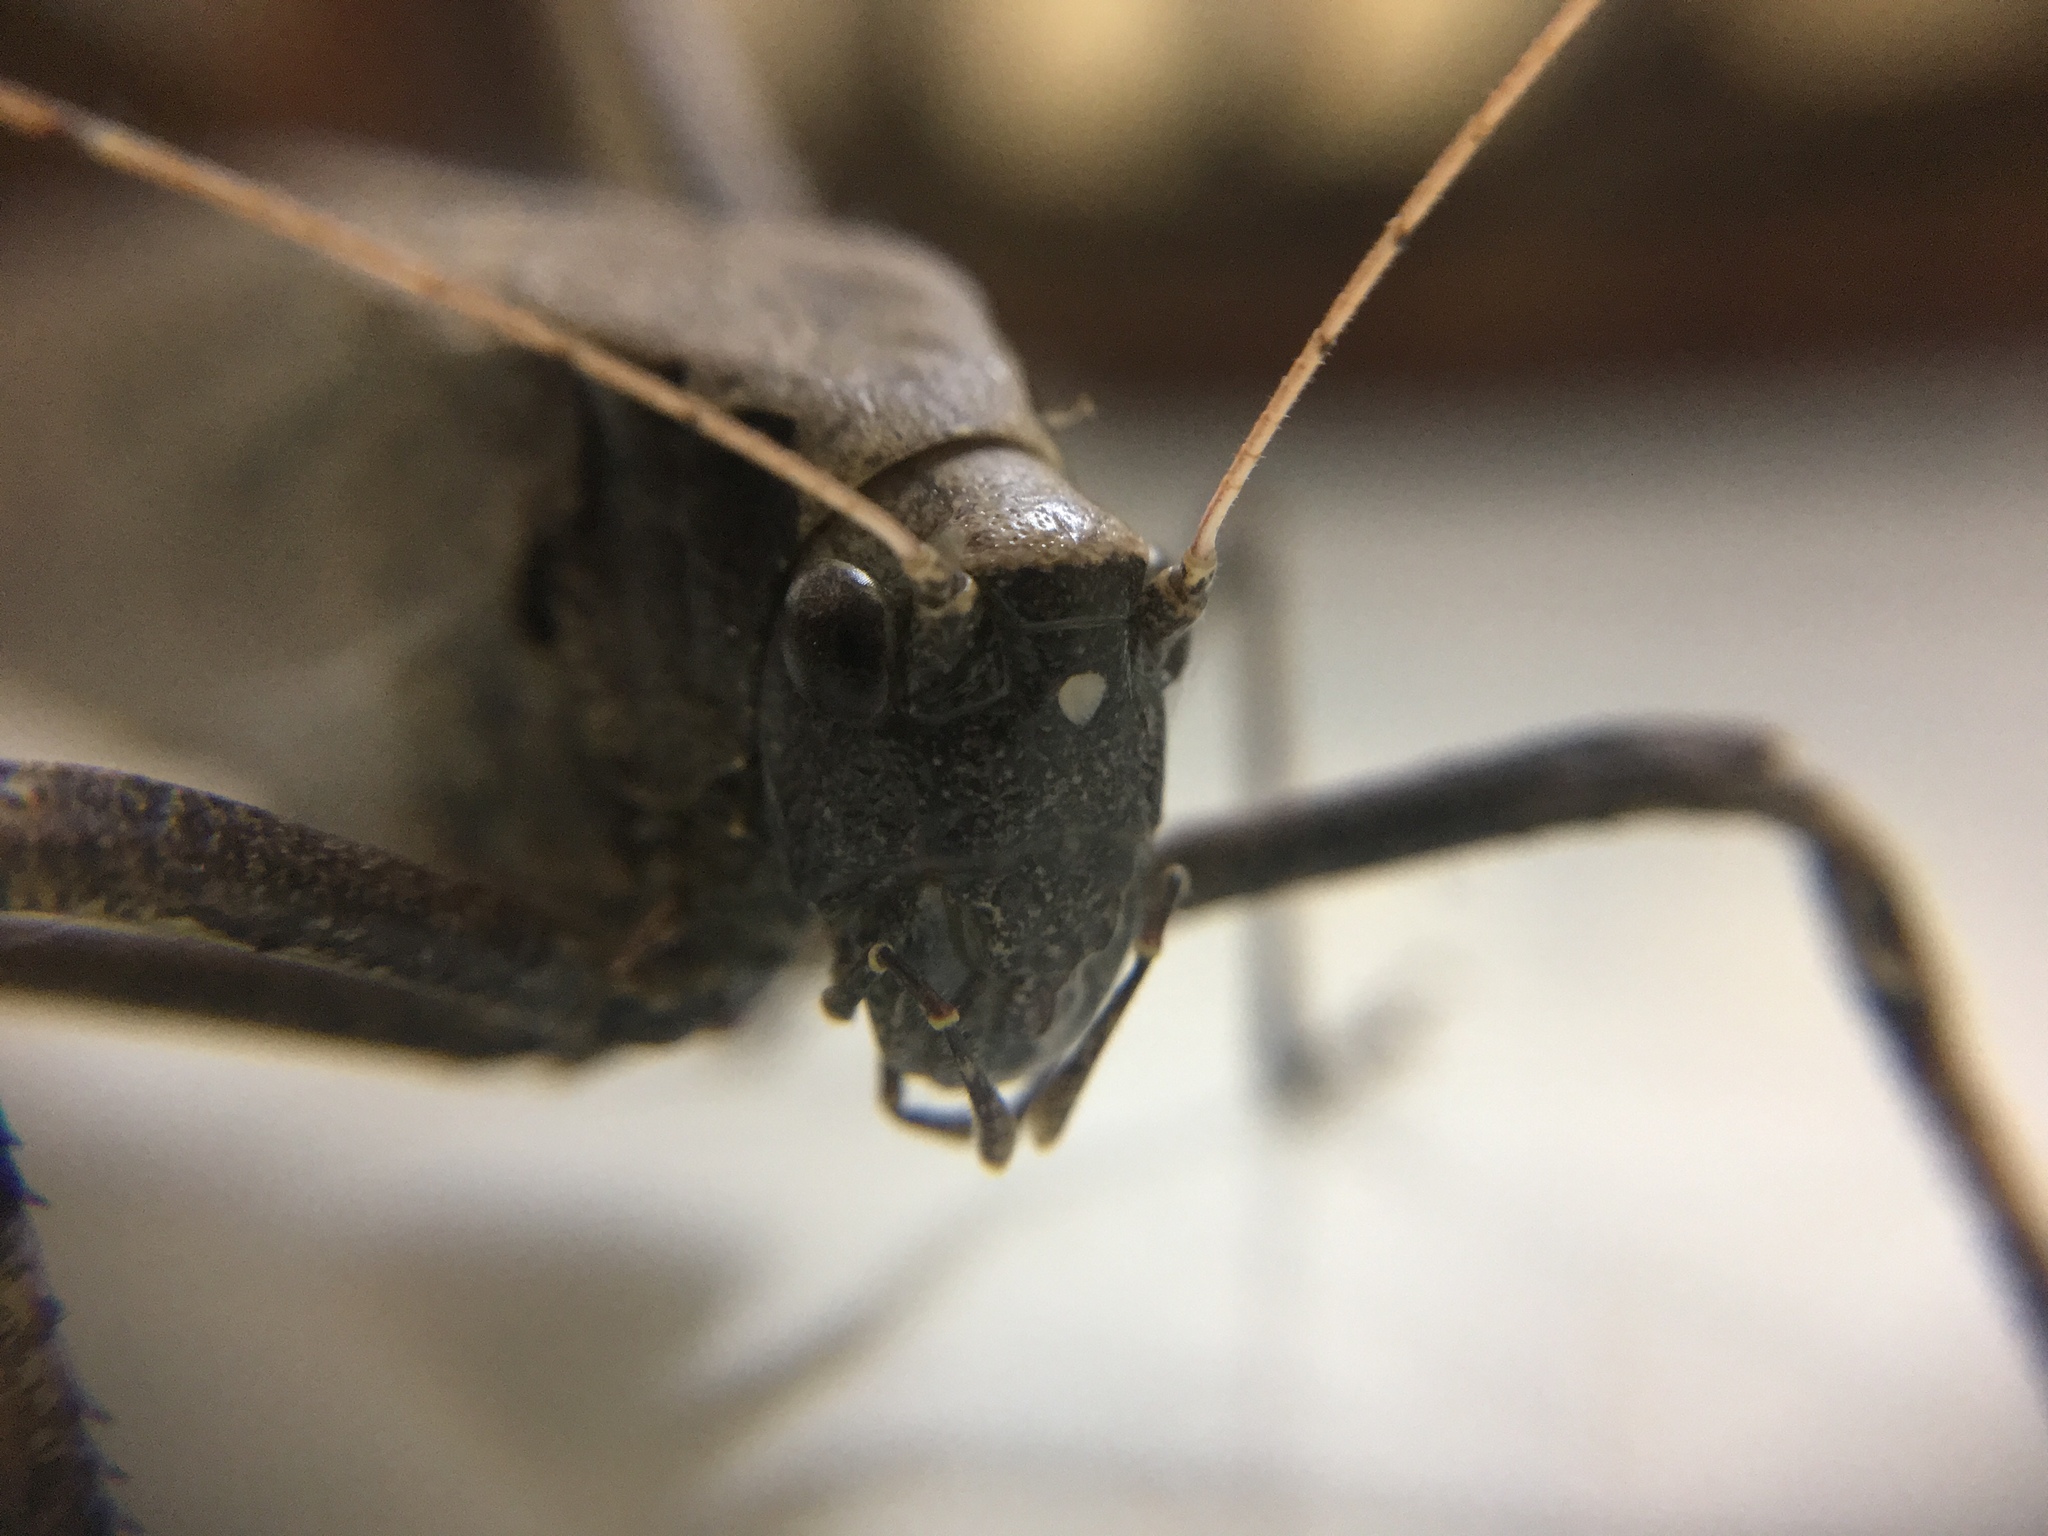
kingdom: Animalia
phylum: Arthropoda
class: Insecta
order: Orthoptera
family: Tettigoniidae
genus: Mecopoda
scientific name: Mecopoda elongata
